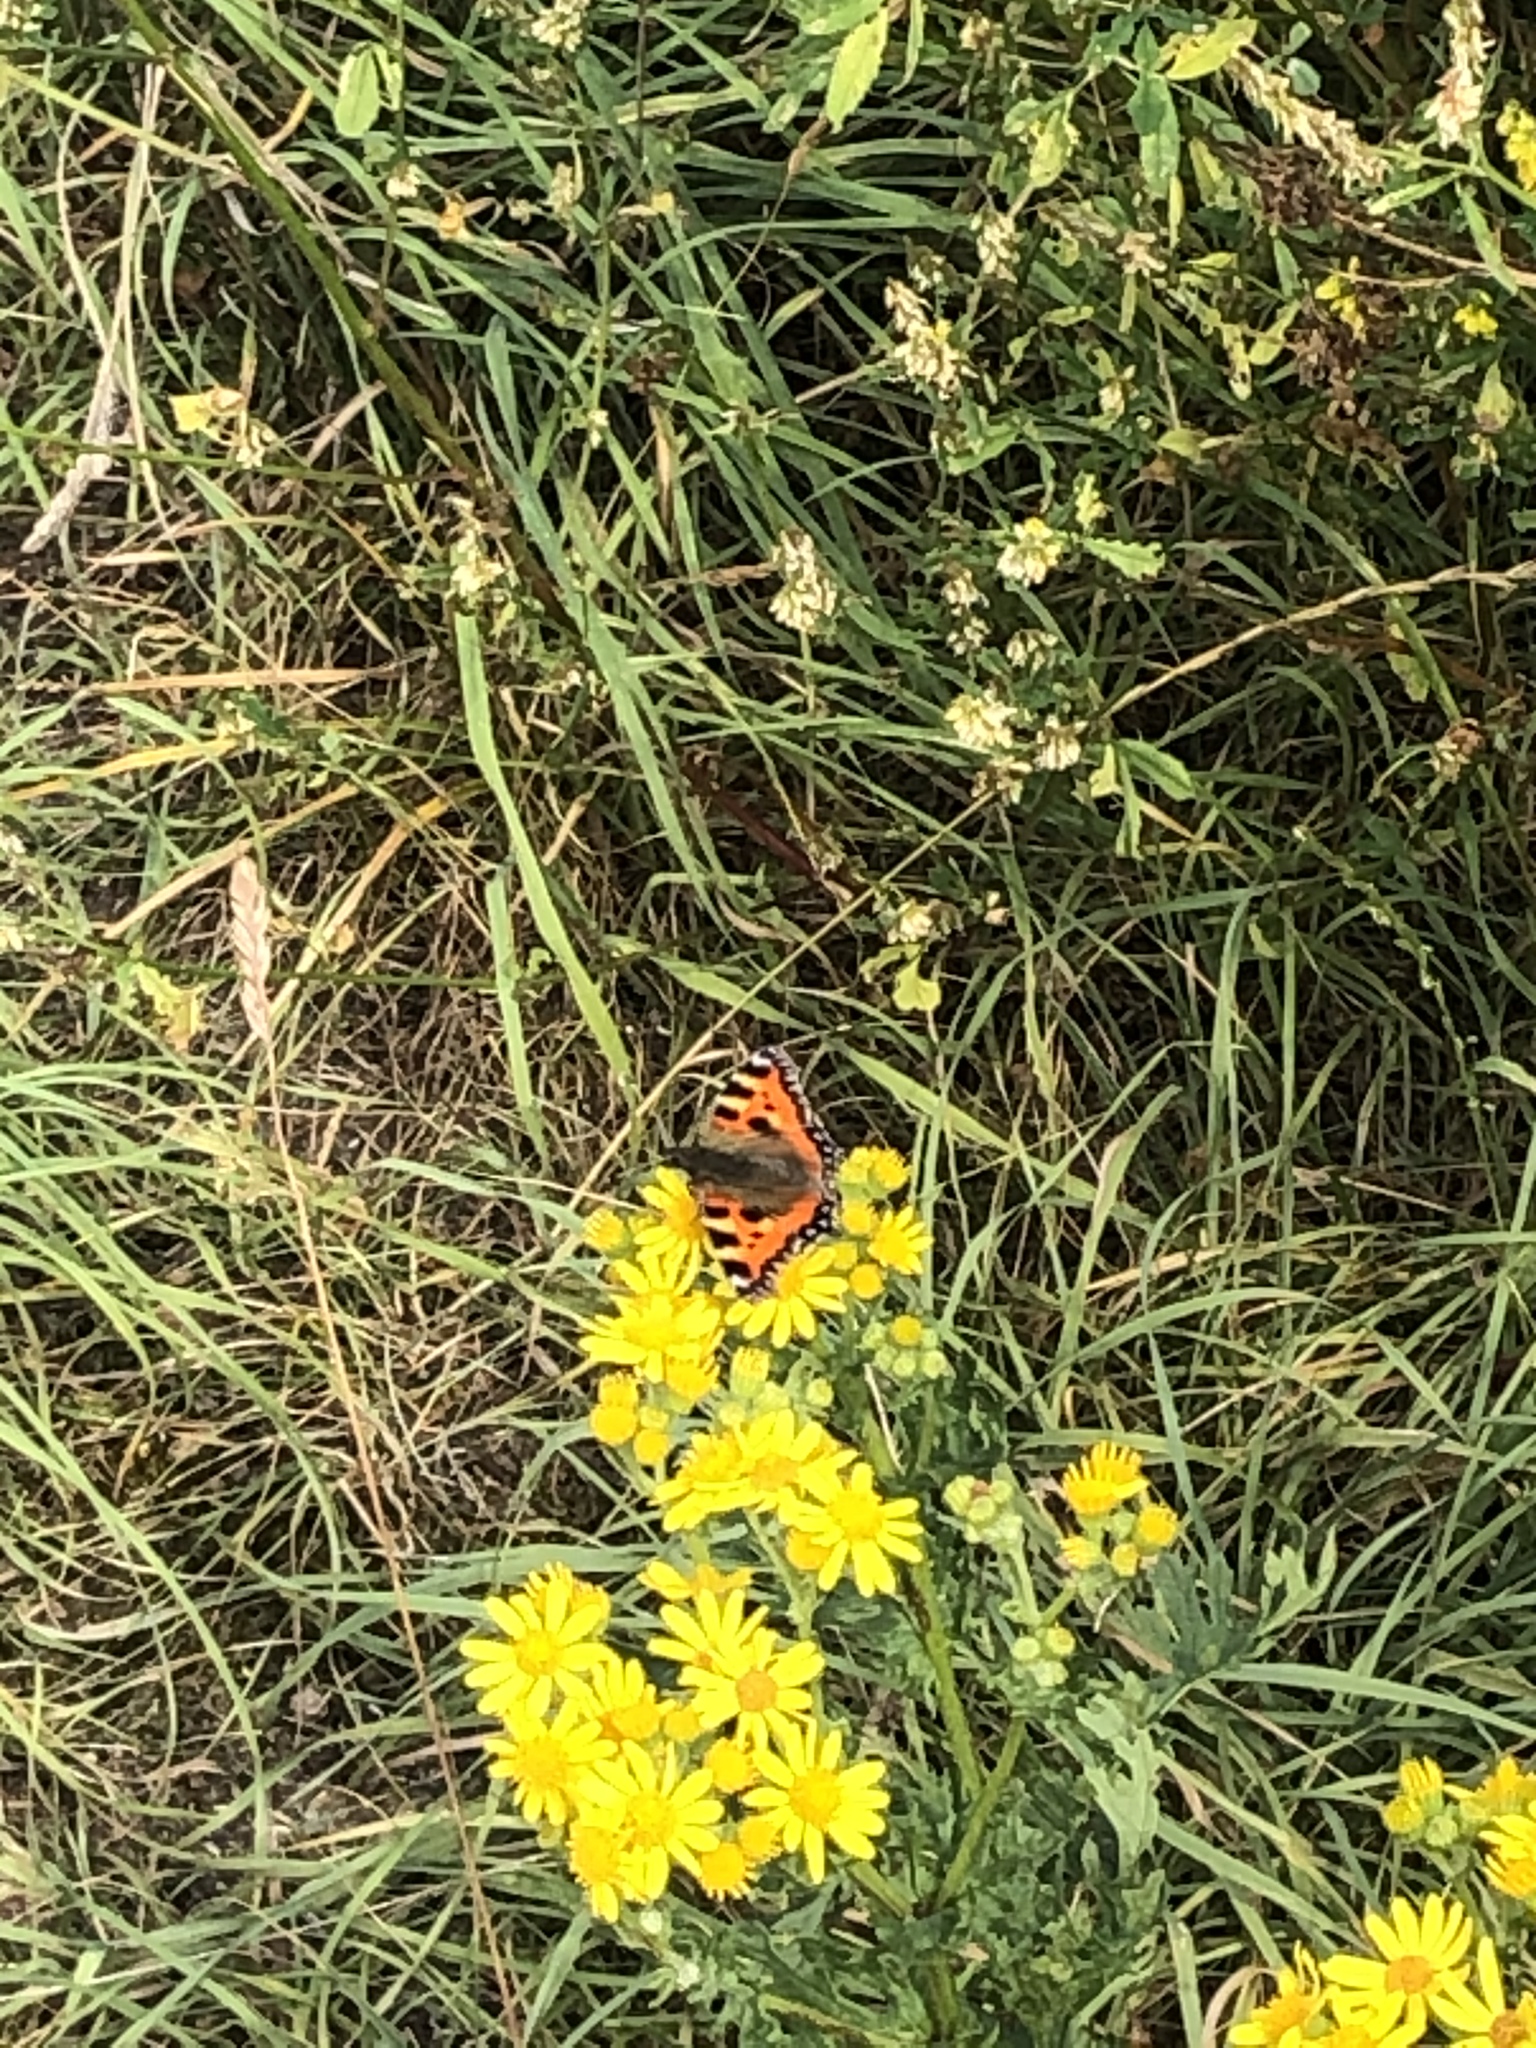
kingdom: Animalia
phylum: Arthropoda
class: Insecta
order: Lepidoptera
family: Nymphalidae
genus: Aglais
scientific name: Aglais urticae
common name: Small tortoiseshell
